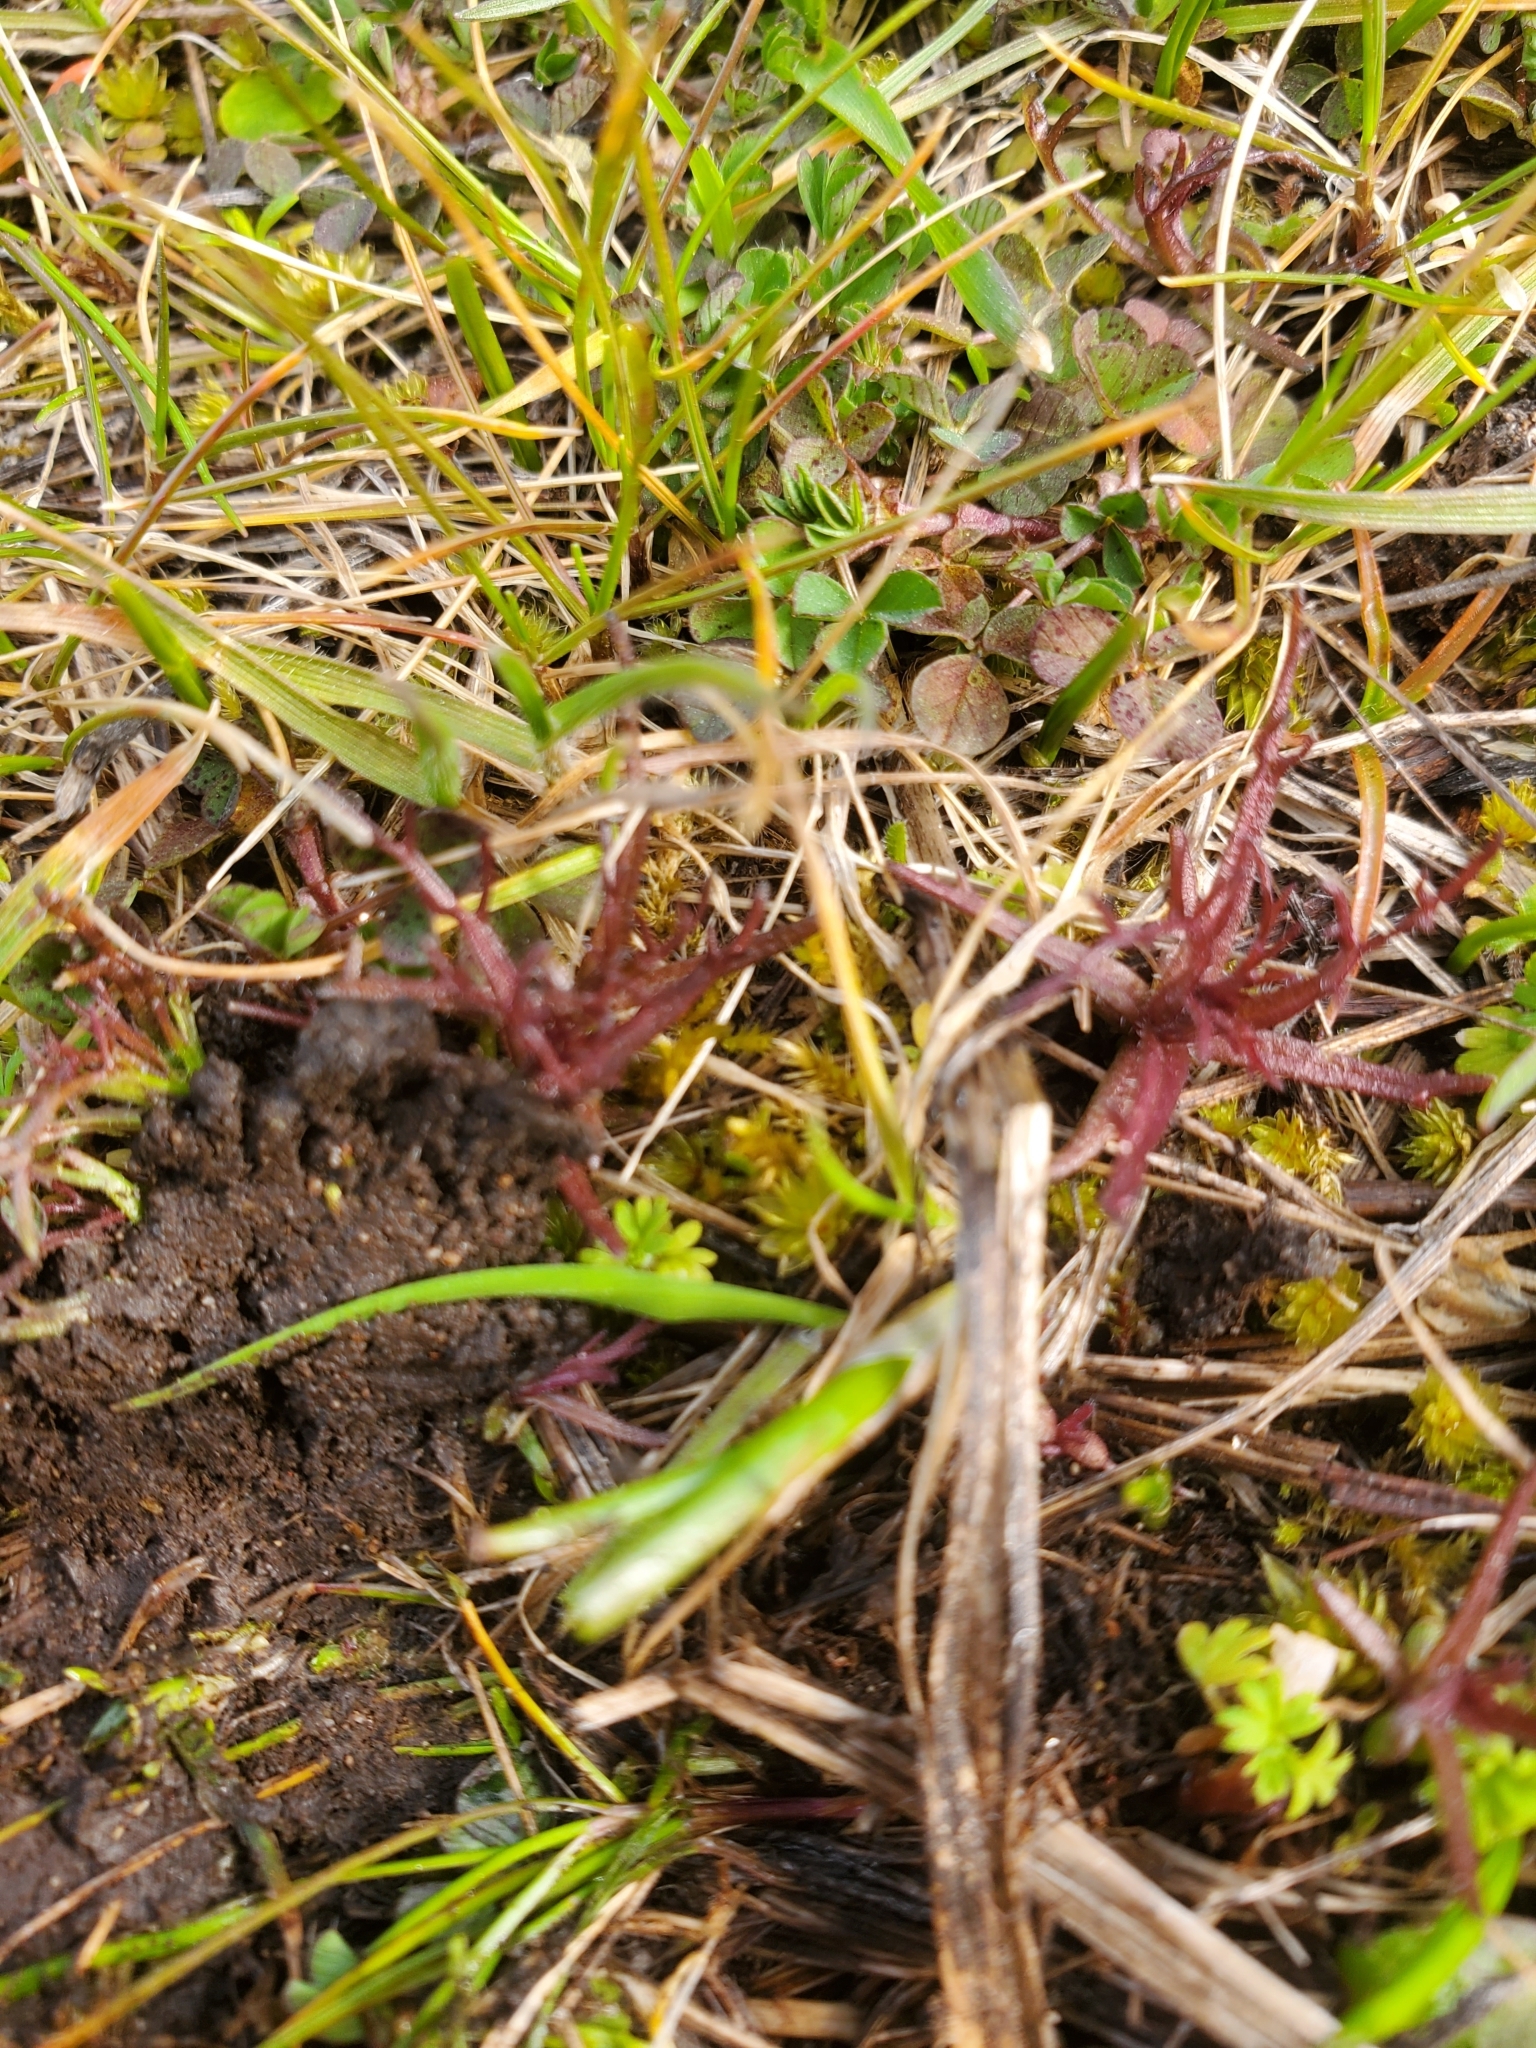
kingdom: Plantae
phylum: Tracheophyta
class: Magnoliopsida
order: Lamiales
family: Orobanchaceae
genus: Triphysaria
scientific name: Triphysaria pusilla
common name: Dwarf false owl-clover
